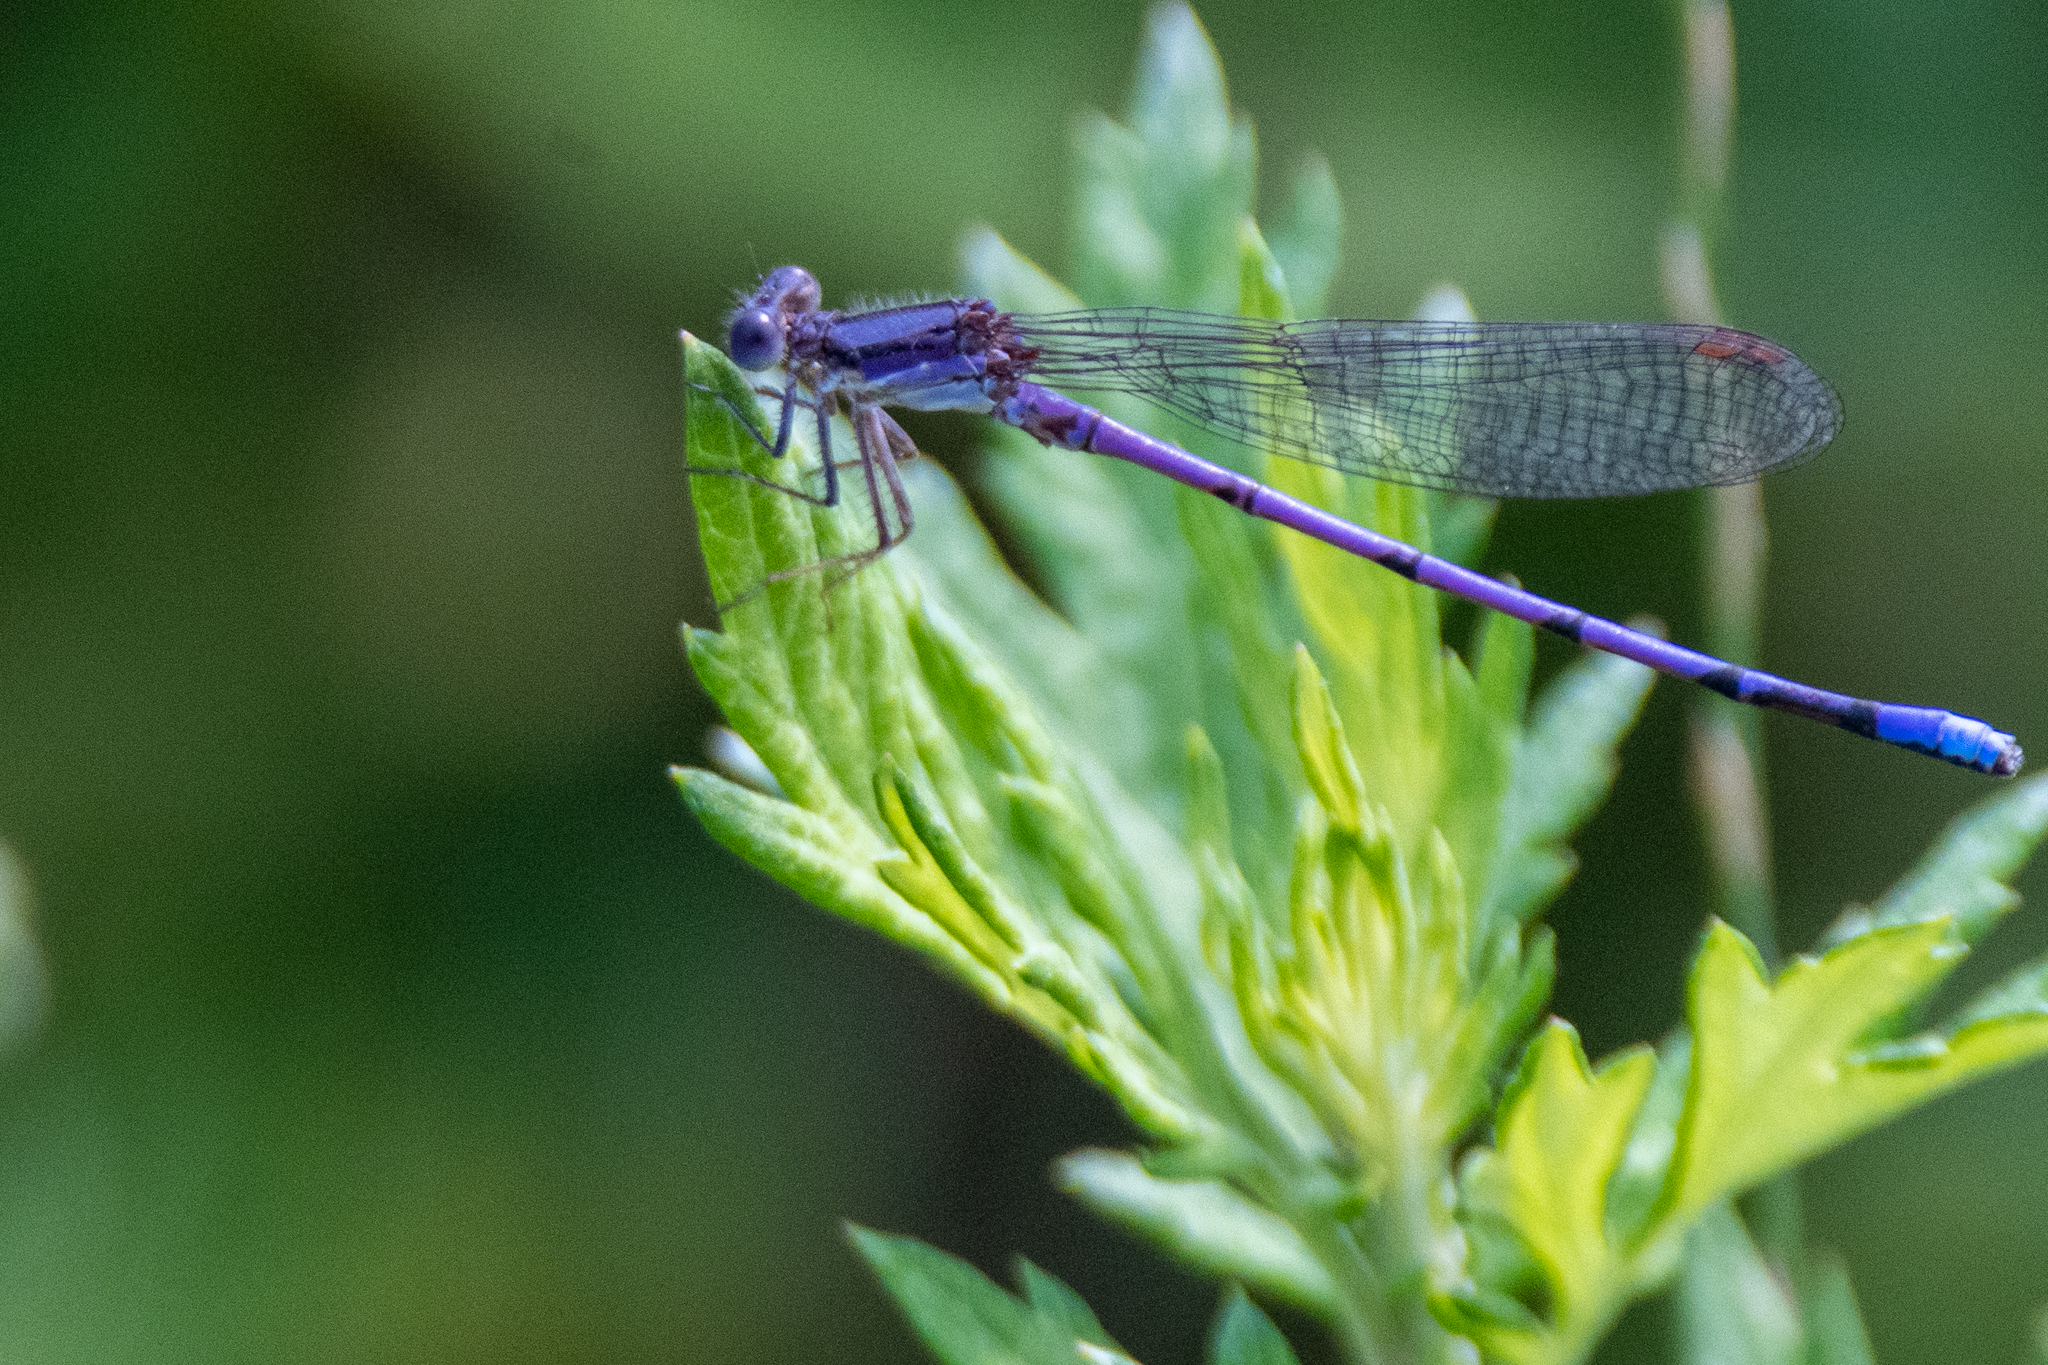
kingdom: Animalia
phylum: Arthropoda
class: Insecta
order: Odonata
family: Coenagrionidae
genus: Argia
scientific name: Argia fumipennis
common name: Variable dancer
